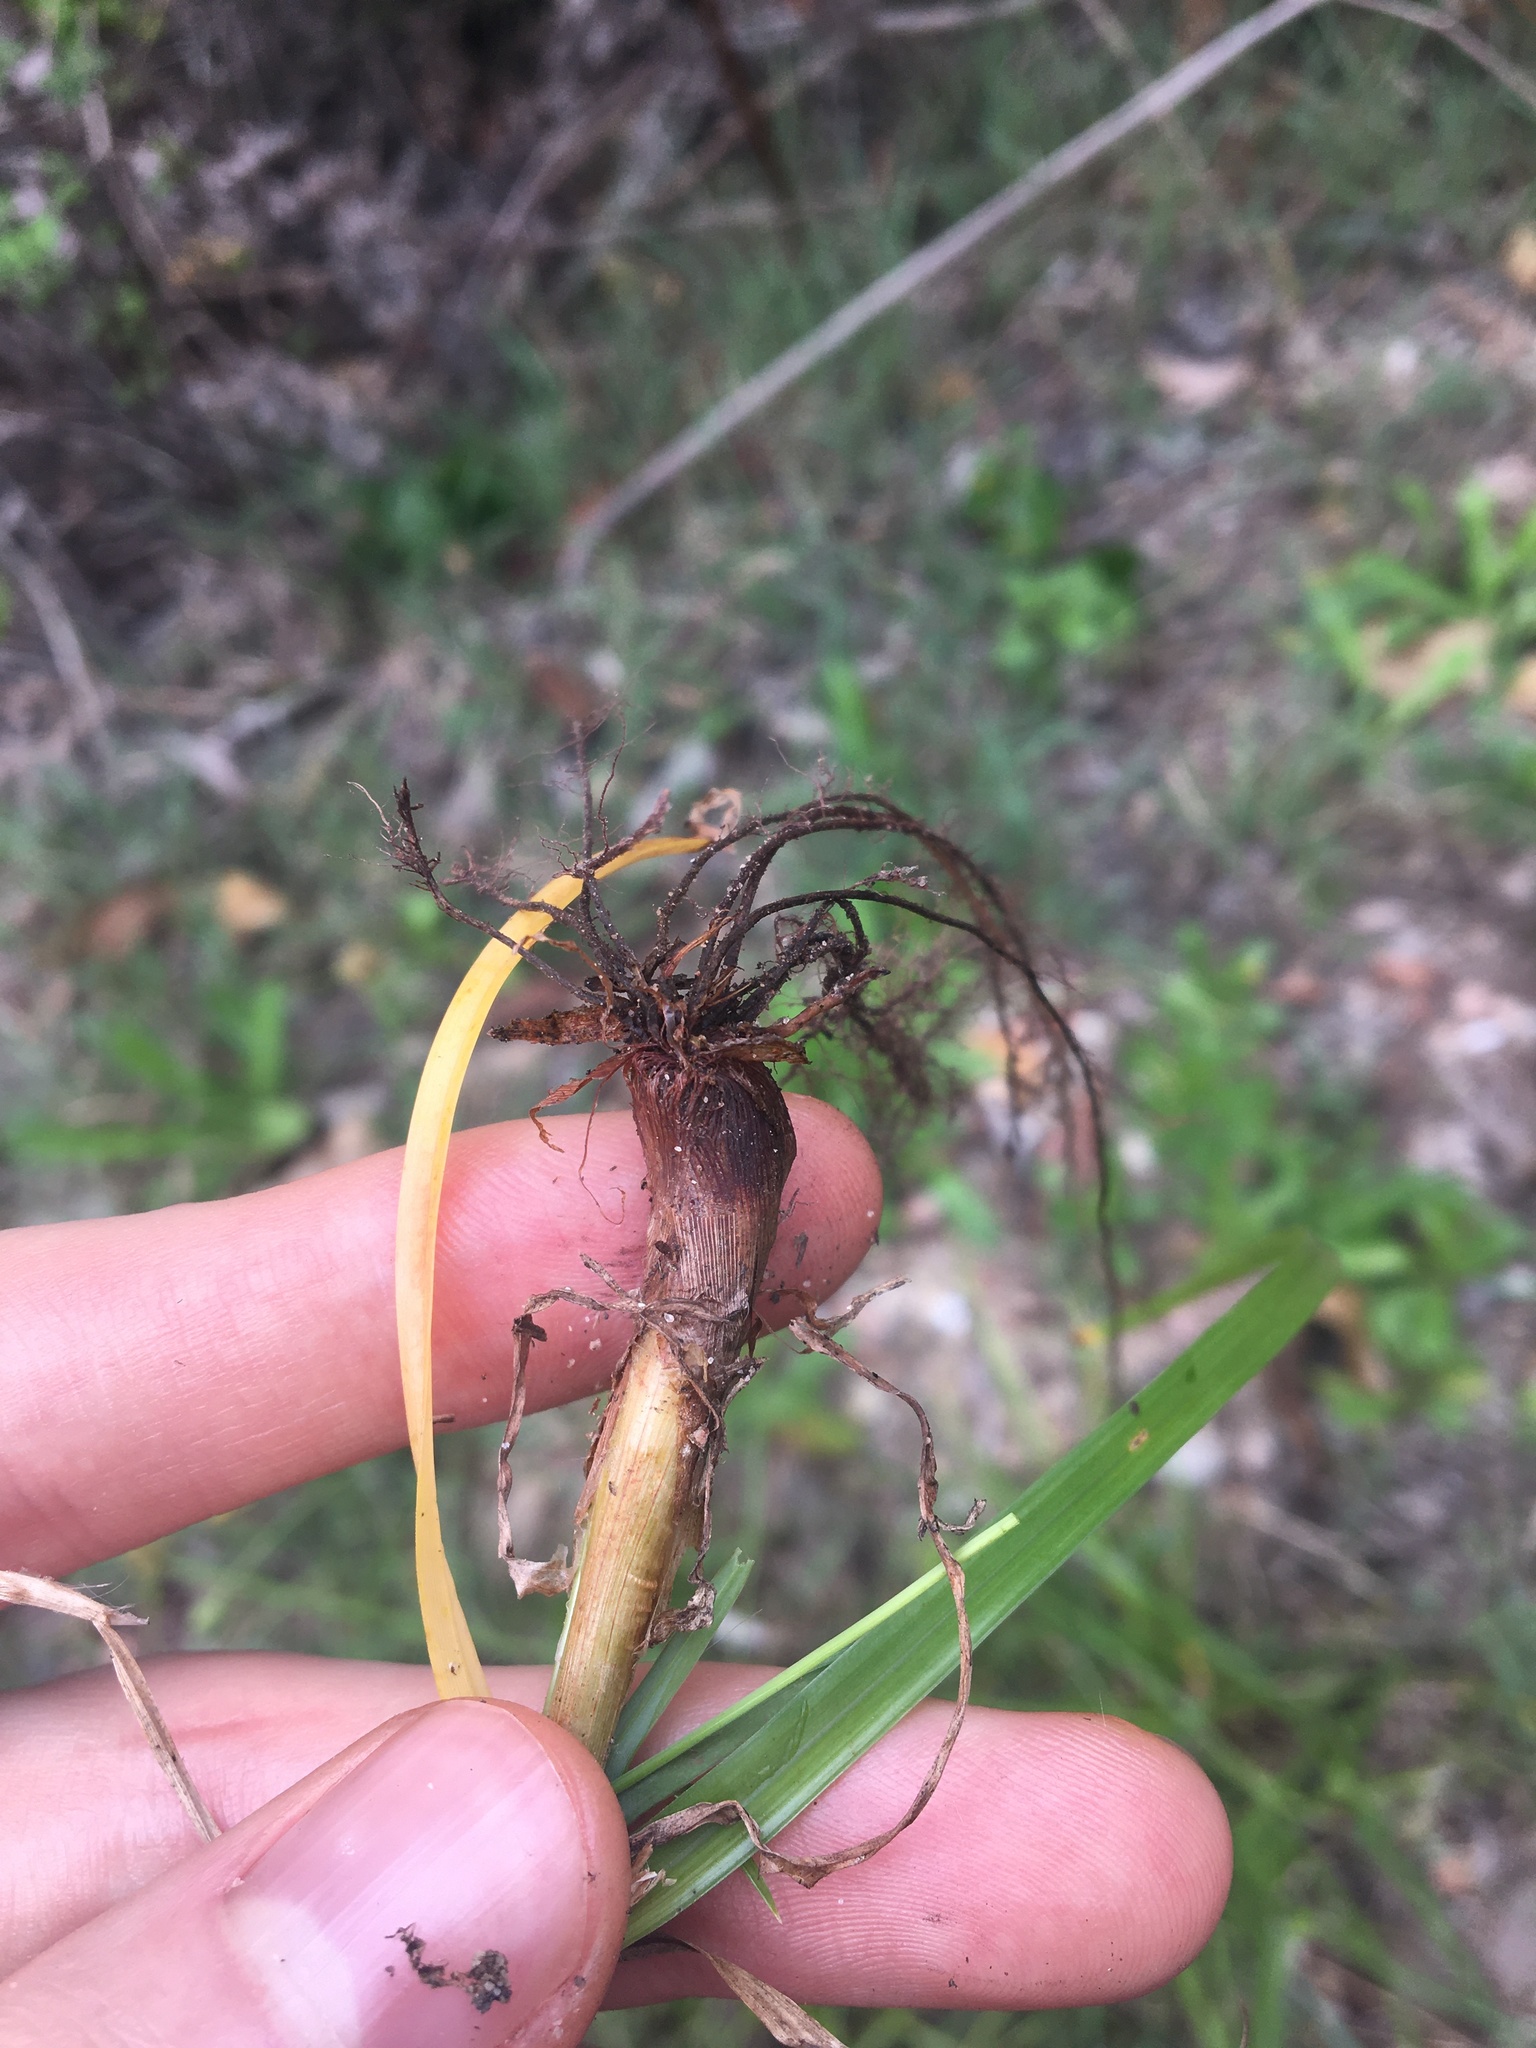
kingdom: Plantae
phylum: Tracheophyta
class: Liliopsida
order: Poales
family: Cyperaceae
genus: Cyperus
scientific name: Cyperus aggregatus
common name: Inflatedscale flatsedge
